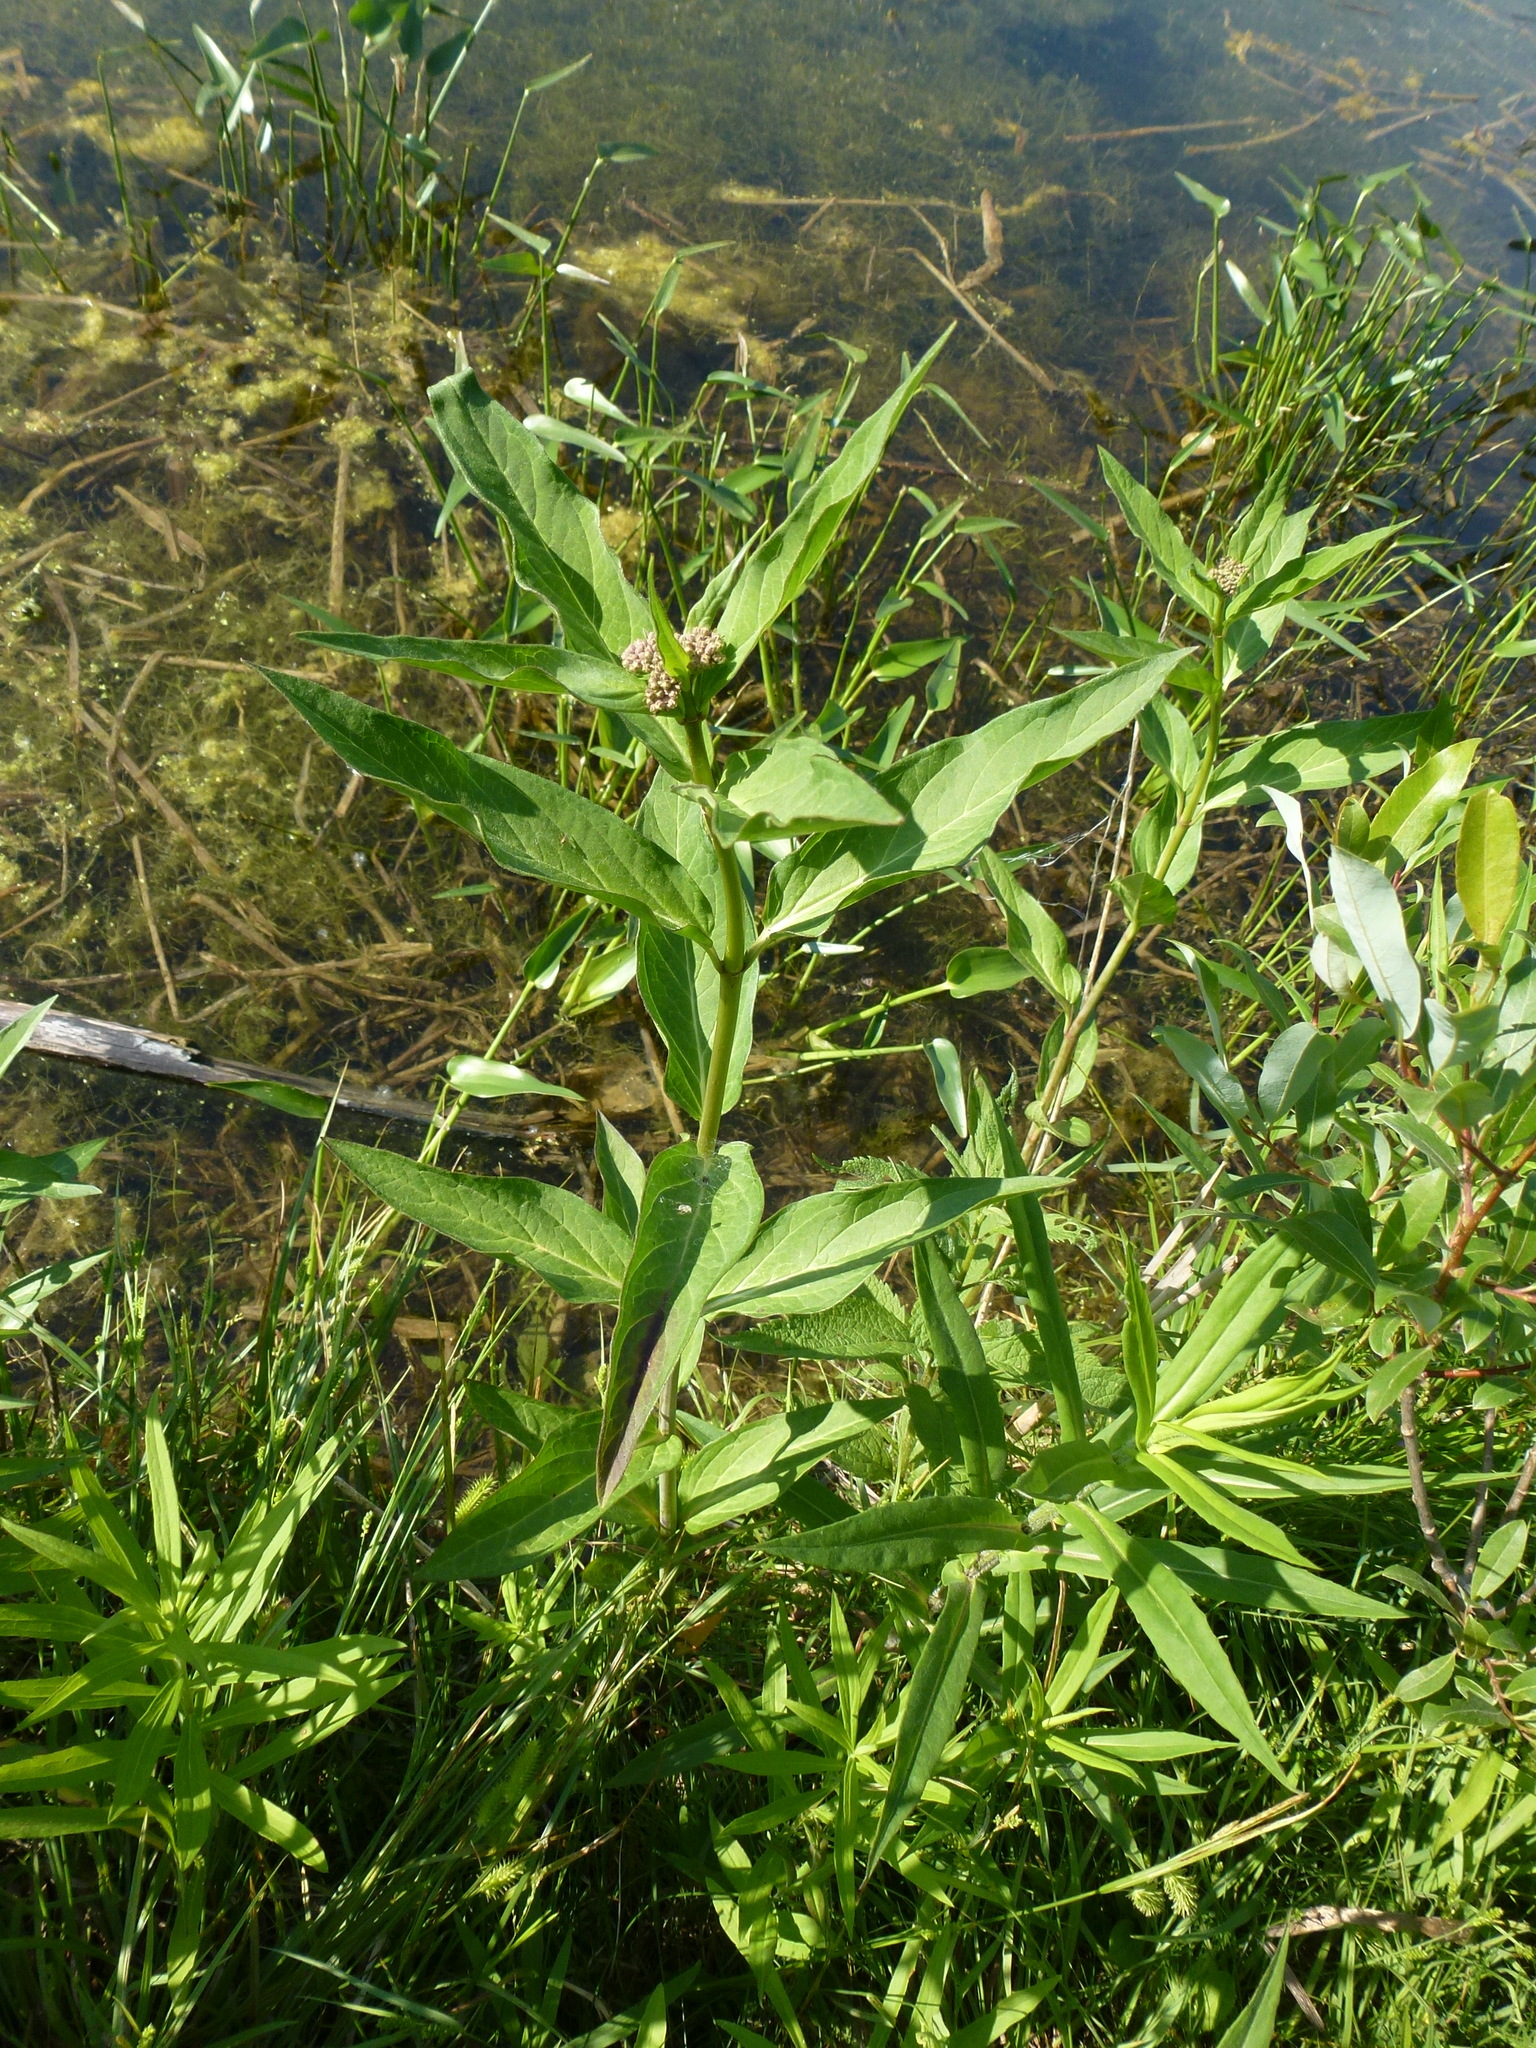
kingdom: Plantae
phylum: Tracheophyta
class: Magnoliopsida
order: Gentianales
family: Apocynaceae
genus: Asclepias
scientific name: Asclepias incarnata
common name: Swamp milkweed
